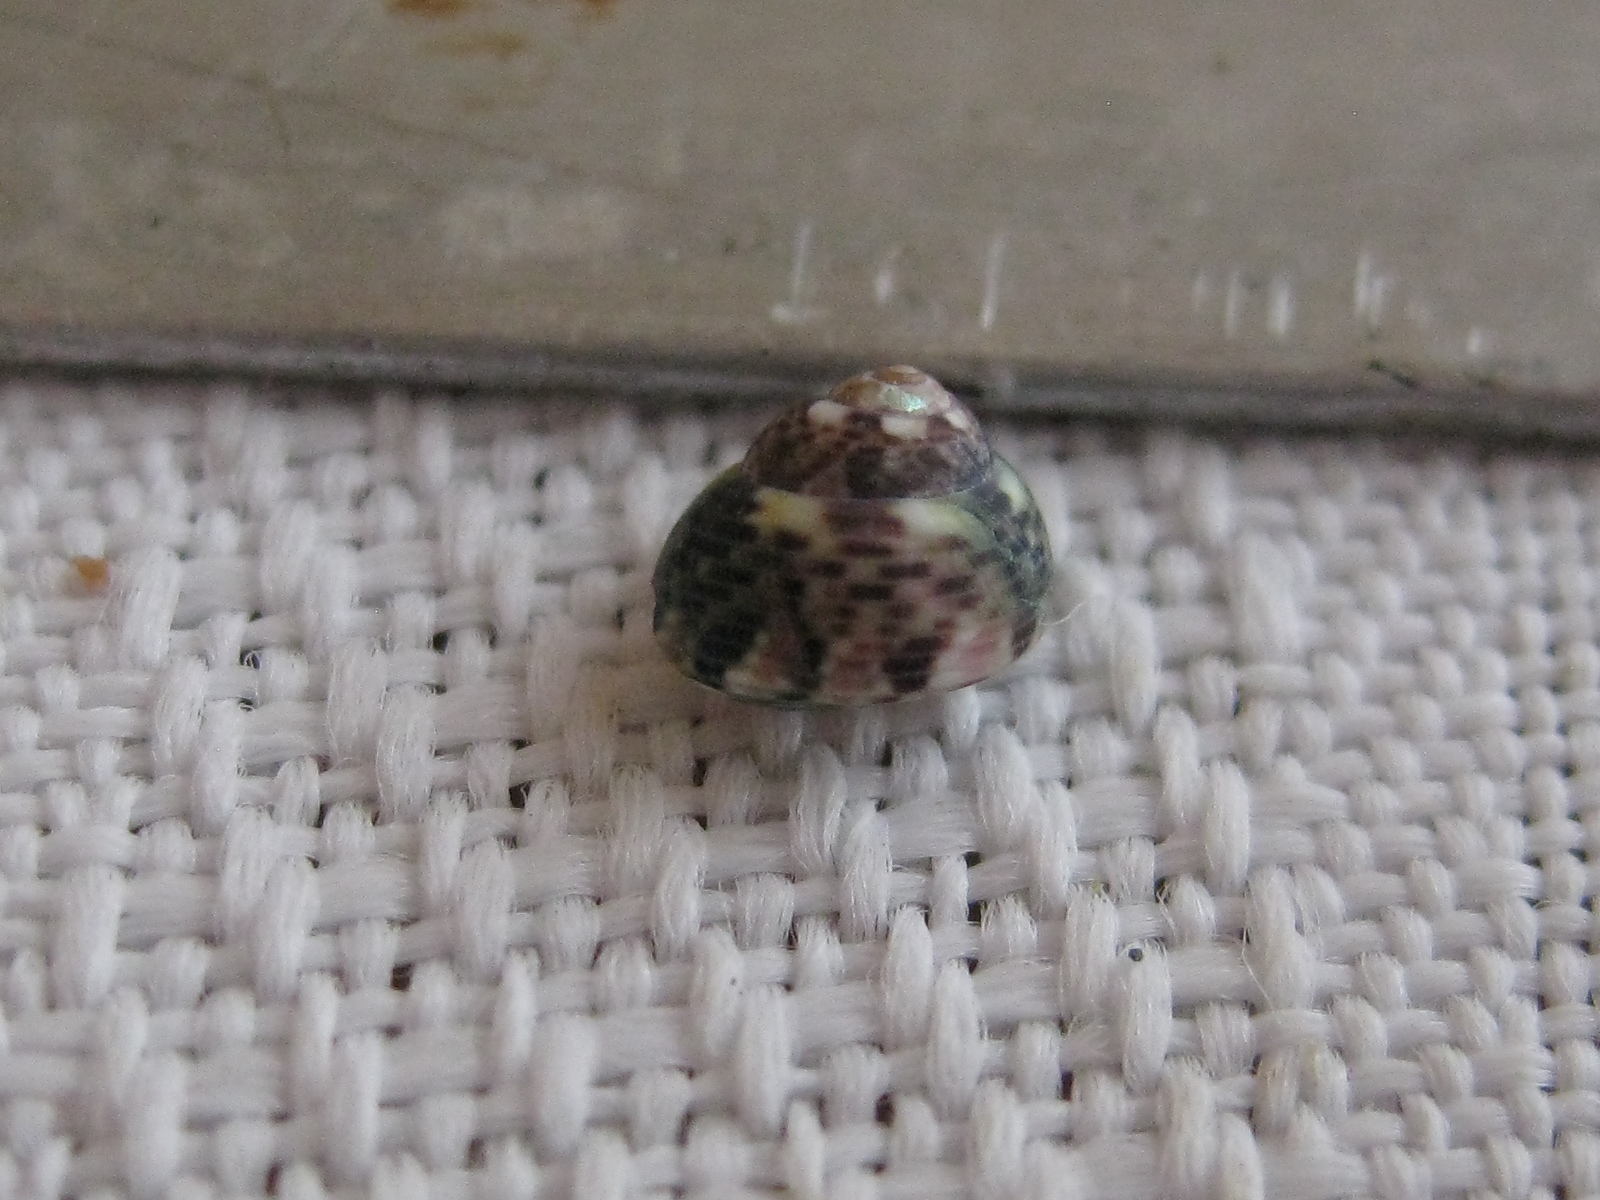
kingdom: Animalia
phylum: Mollusca
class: Gastropoda
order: Trochida
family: Trochidae
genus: Micrelenchus
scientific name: Micrelenchus tessellatus
